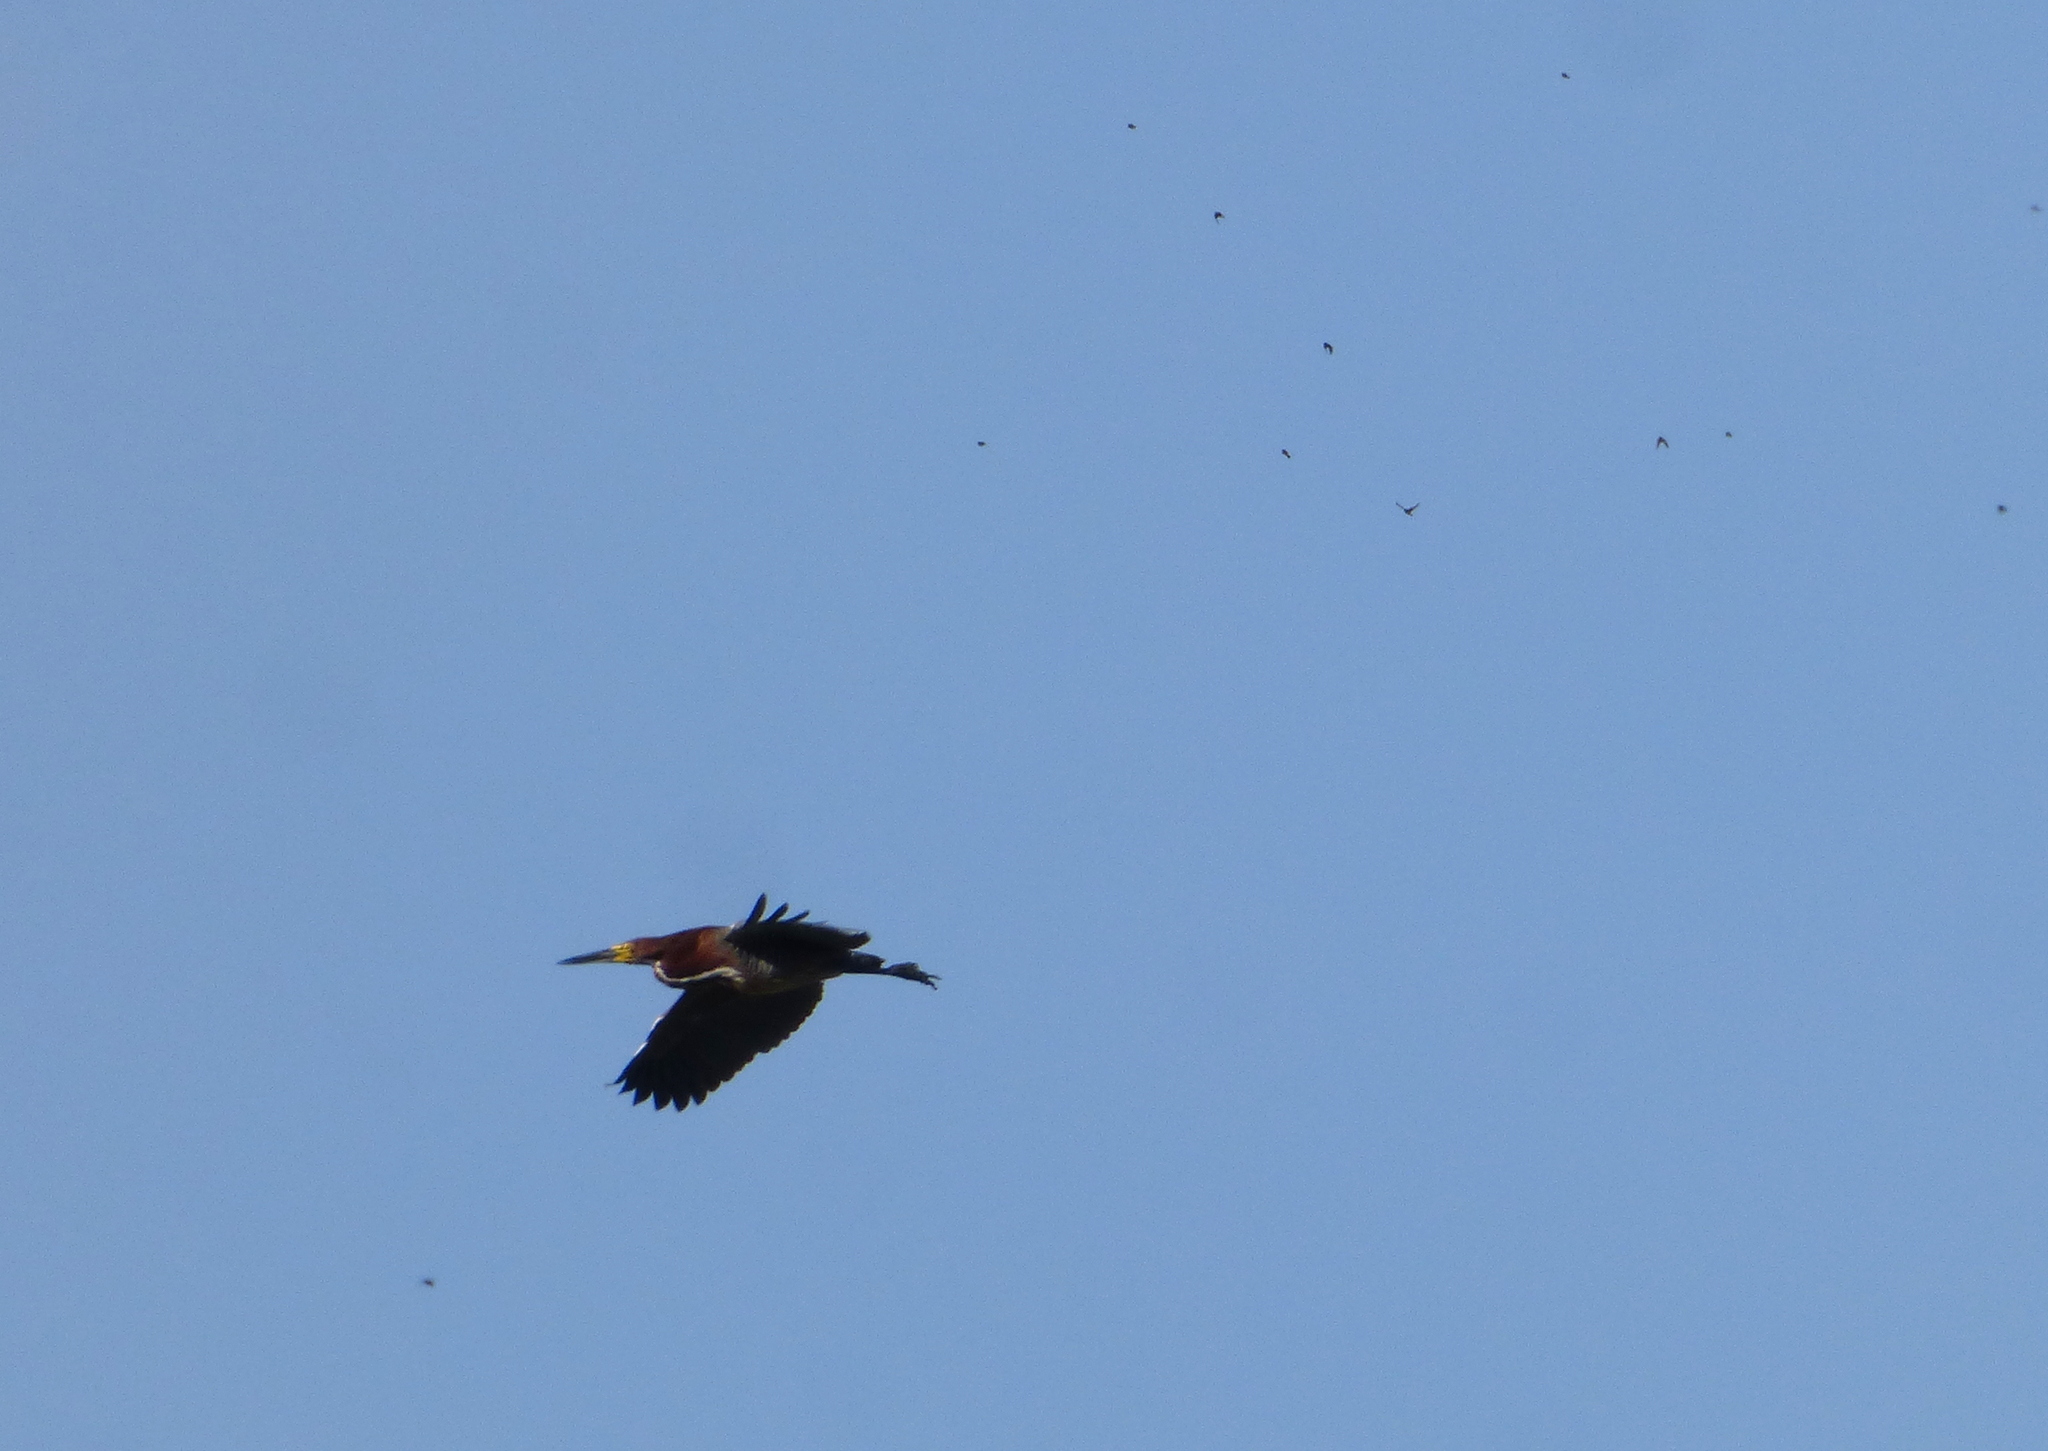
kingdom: Animalia
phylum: Chordata
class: Aves
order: Pelecaniformes
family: Ardeidae
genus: Tigrisoma
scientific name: Tigrisoma lineatum
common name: Rufescent tiger-heron
